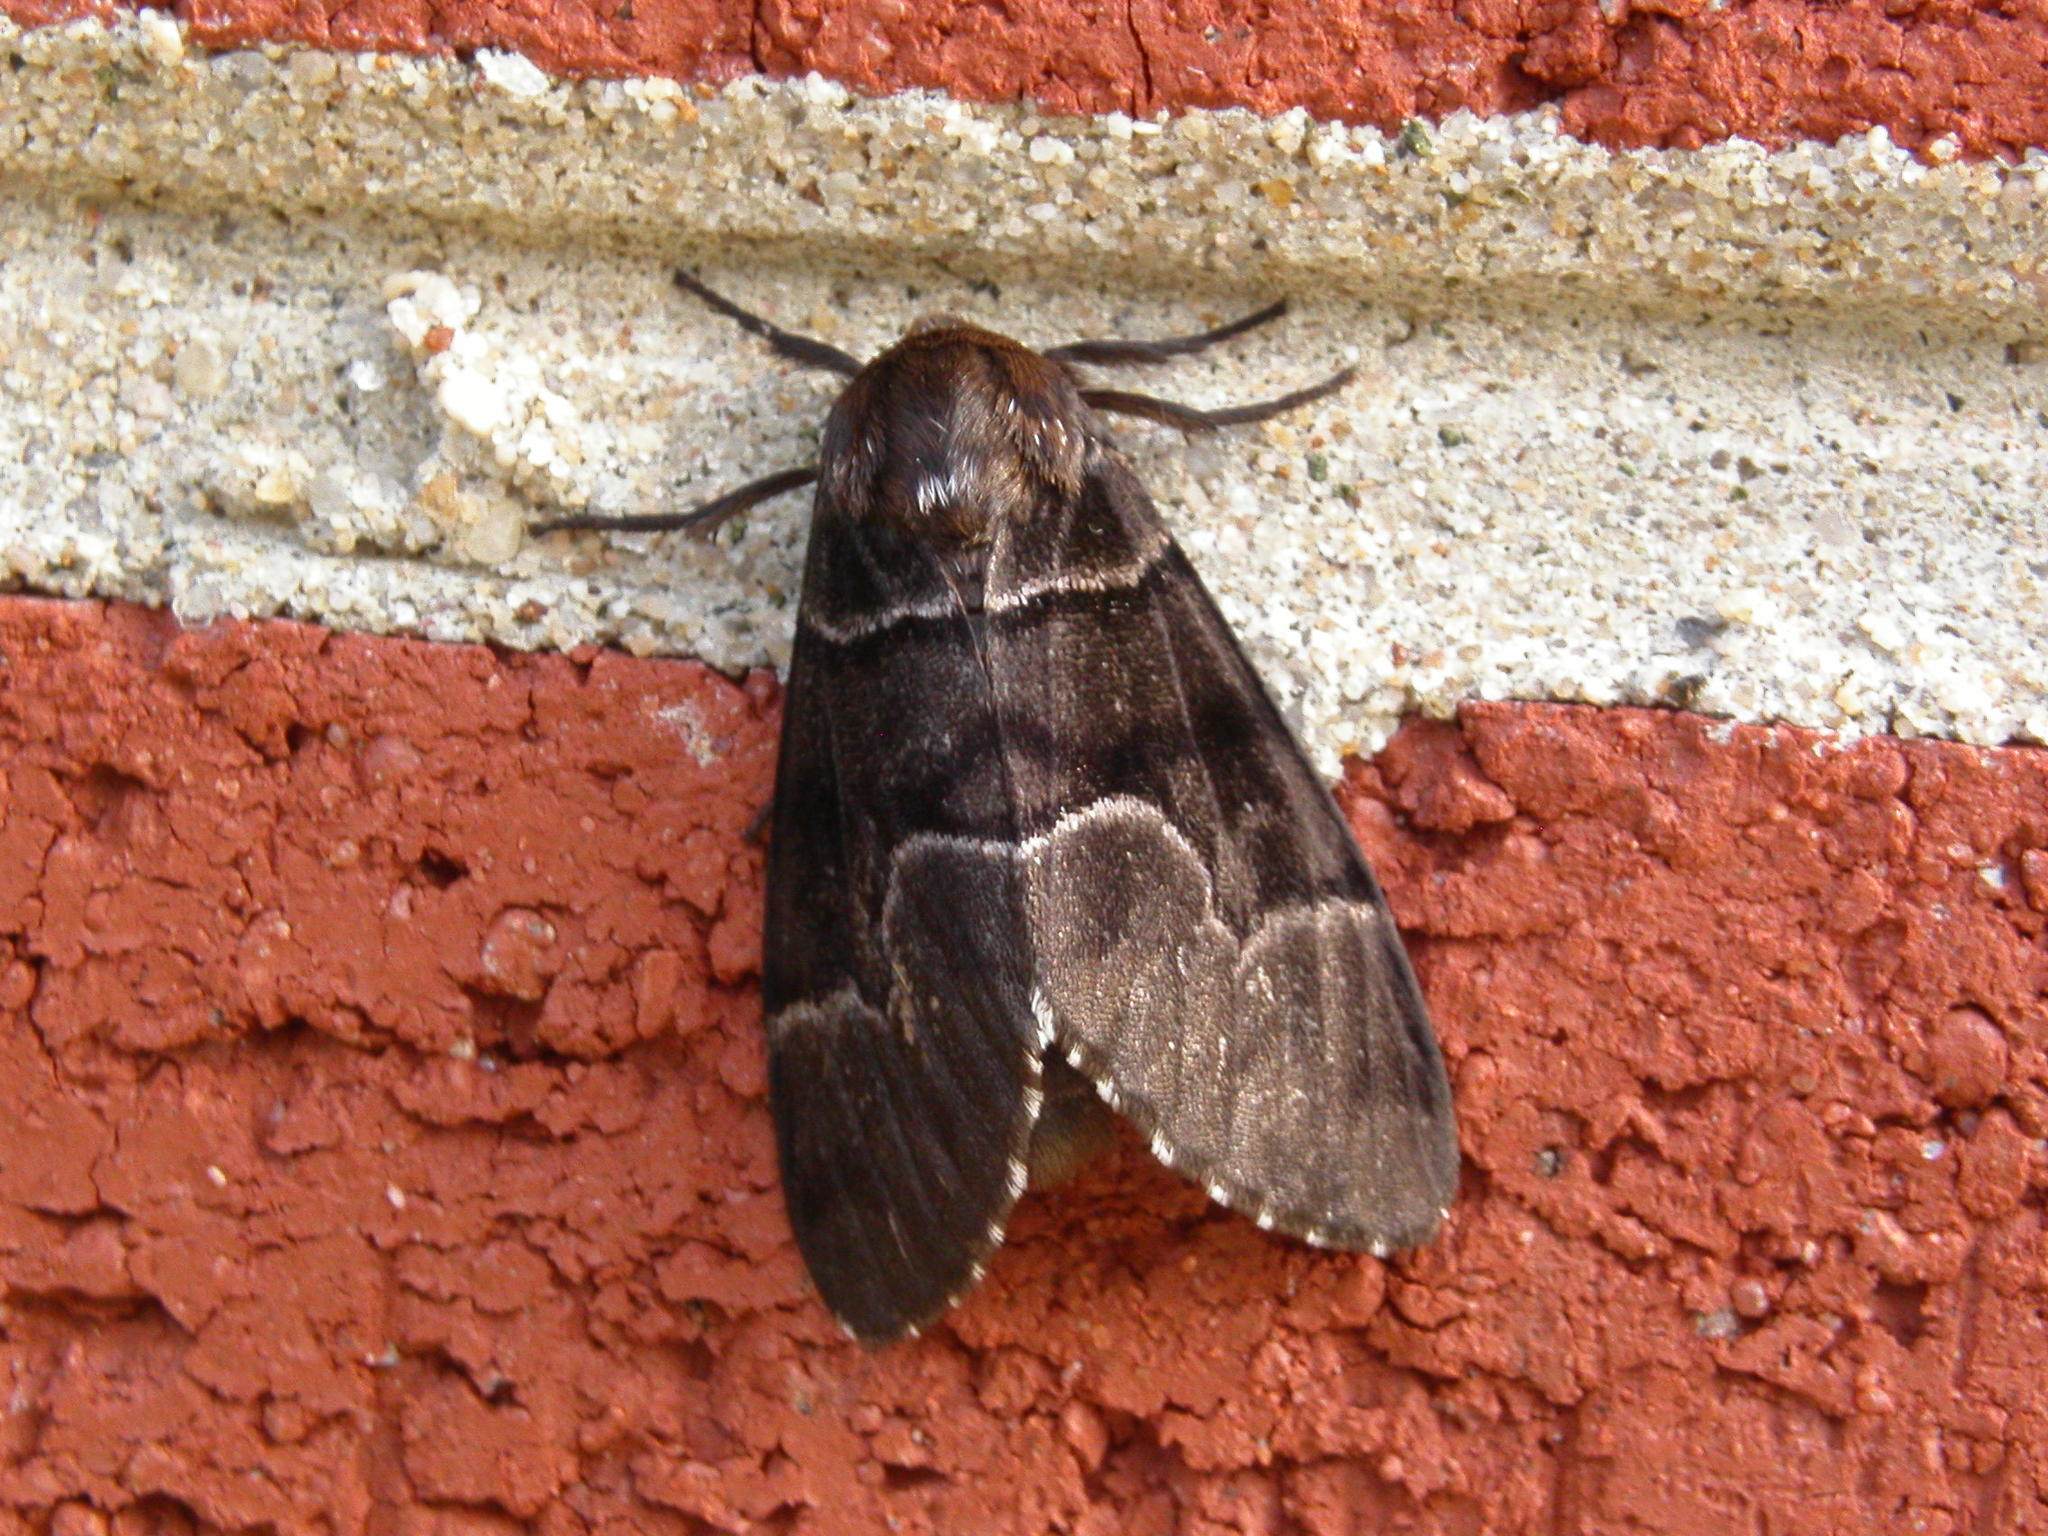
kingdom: Animalia
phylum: Arthropoda
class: Insecta
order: Lepidoptera
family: Noctuidae
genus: Panthea
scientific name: Panthea furcilla
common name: Eastern panthea moth
